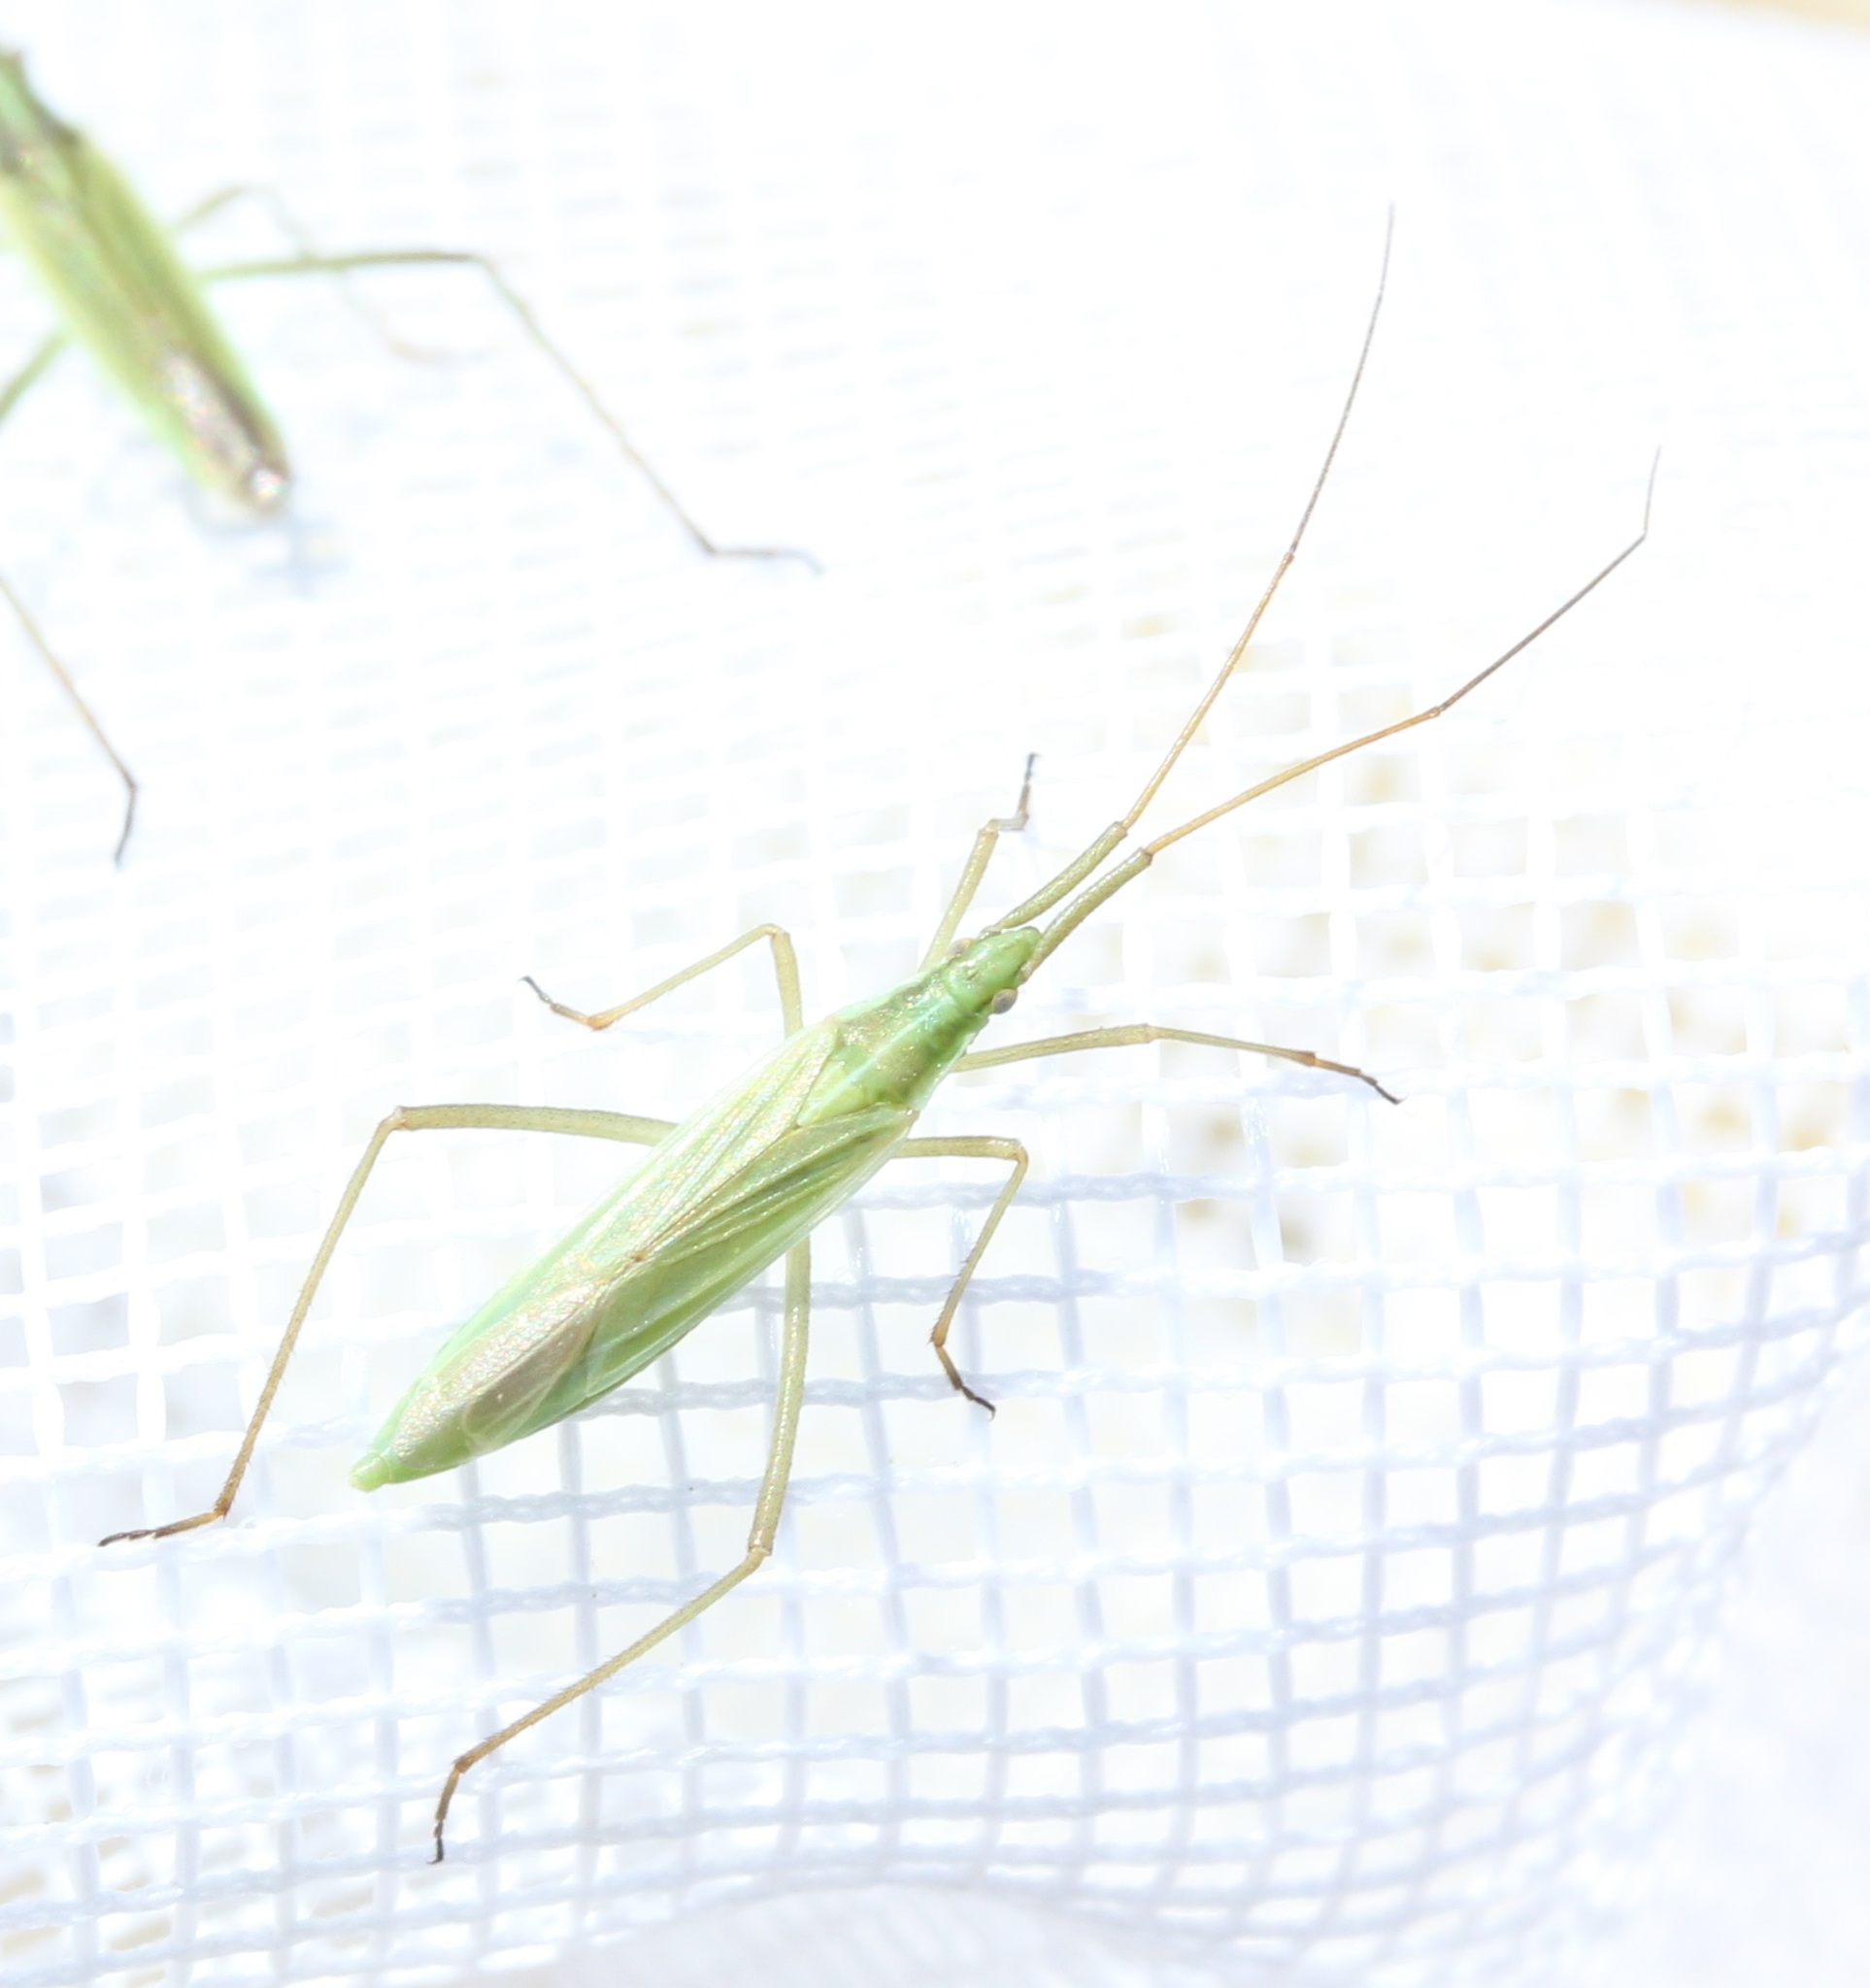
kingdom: Animalia
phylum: Arthropoda
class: Insecta
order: Hemiptera
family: Miridae
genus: Megaloceroea
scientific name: Megaloceroea recticornis
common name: Plant bug
